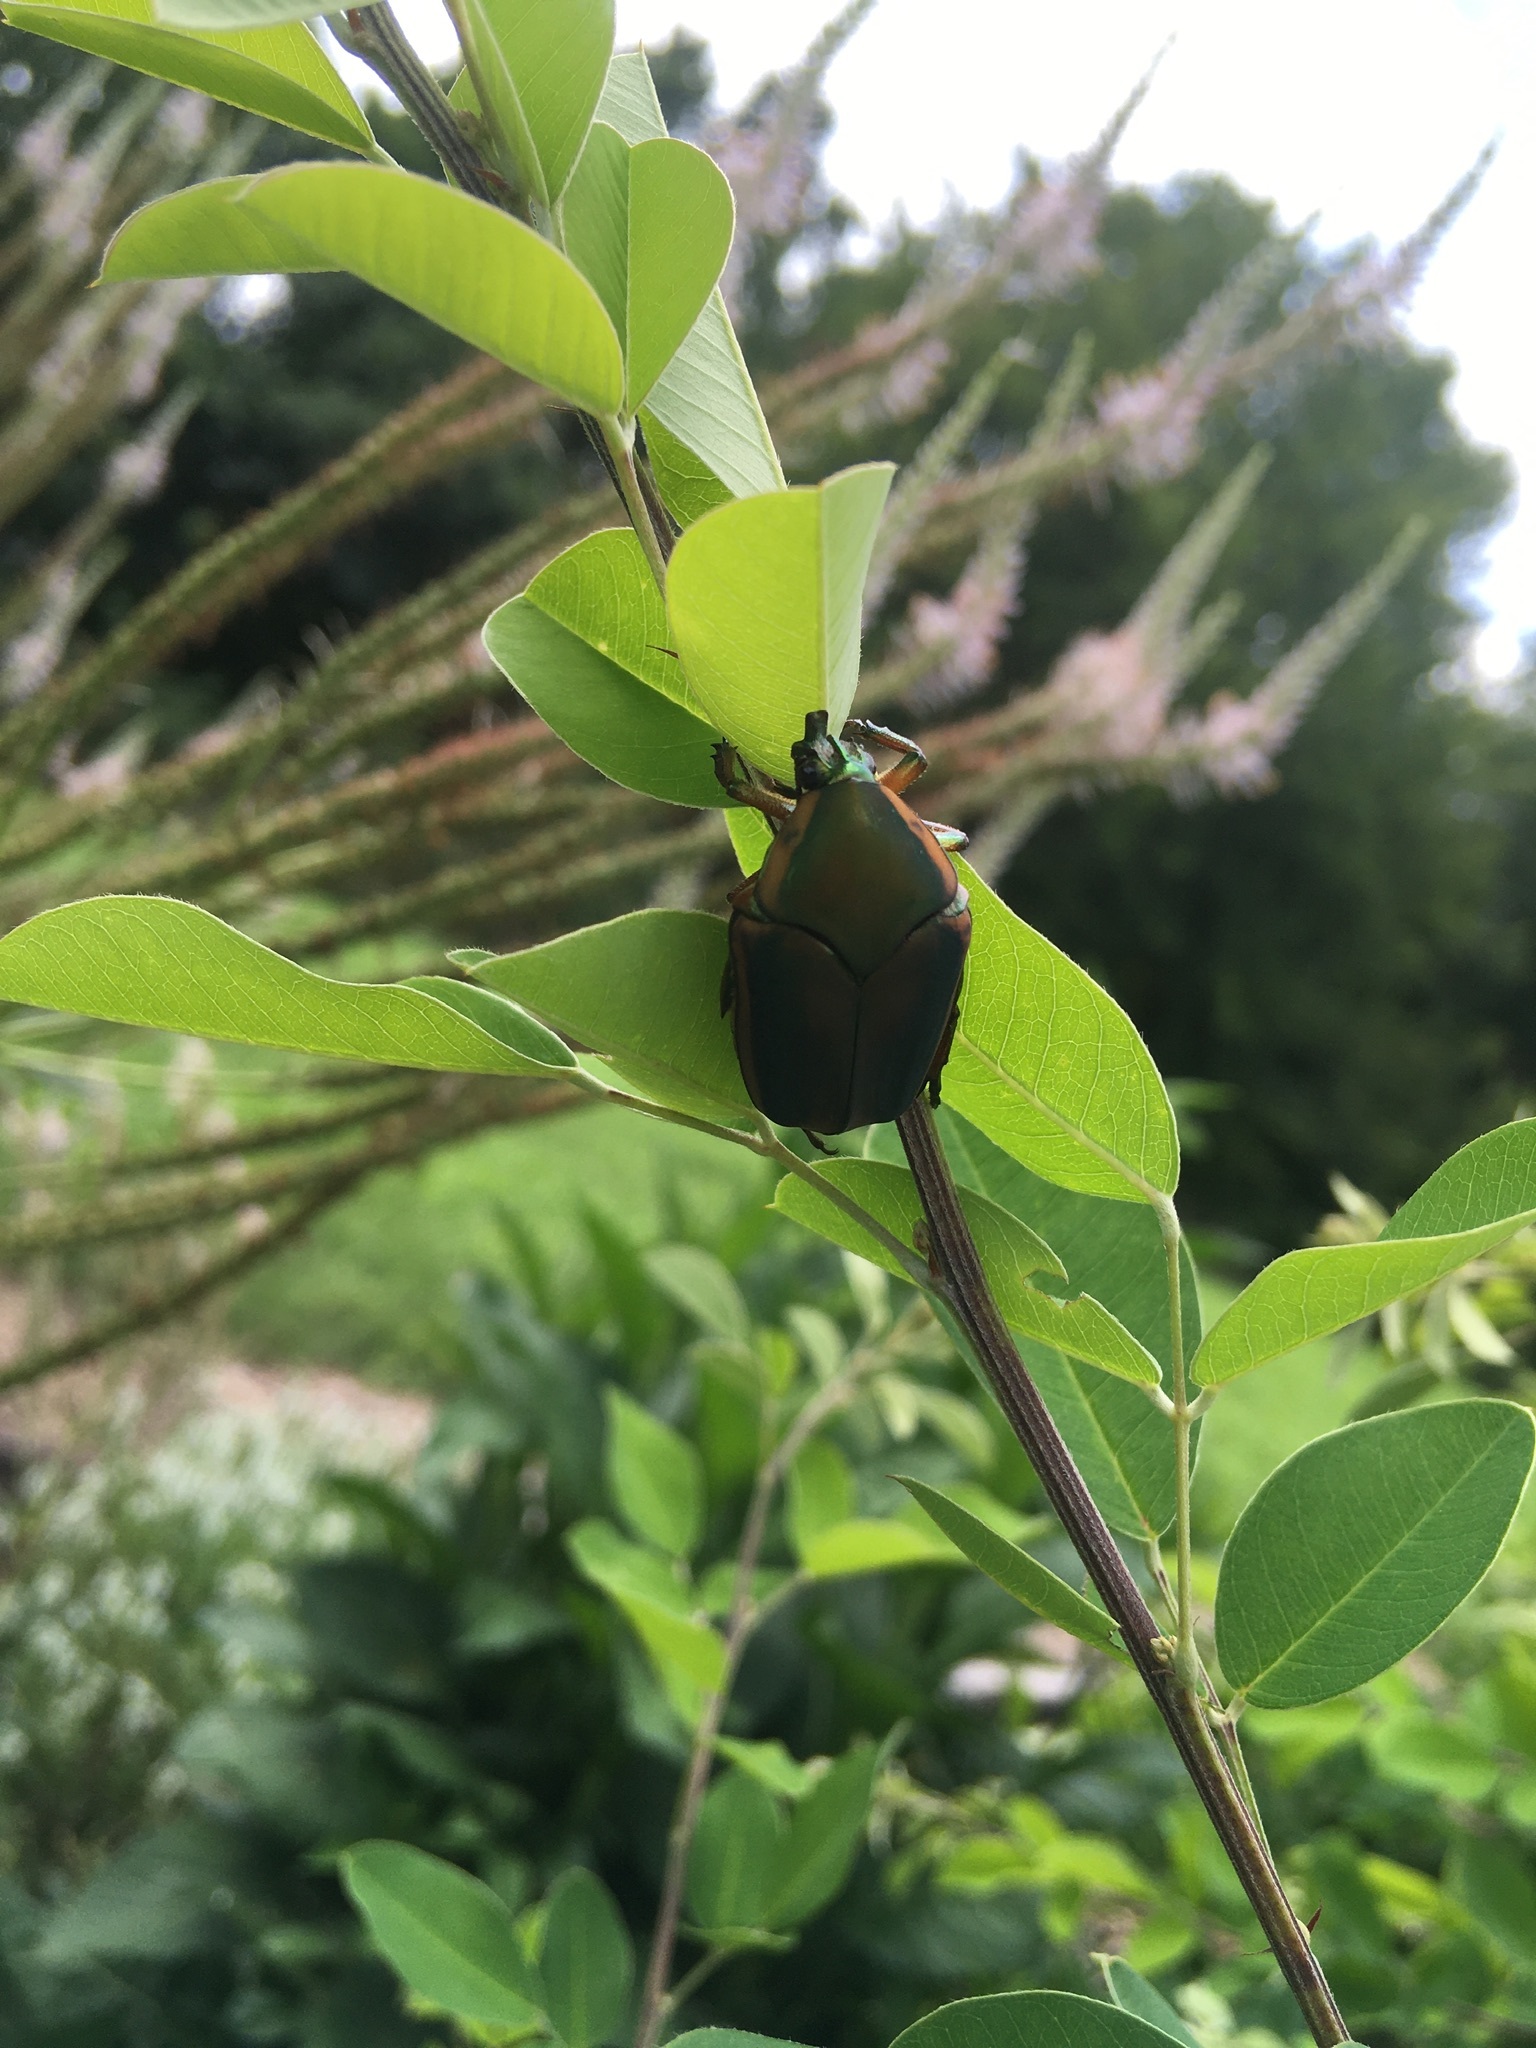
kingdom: Animalia
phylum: Arthropoda
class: Insecta
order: Coleoptera
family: Scarabaeidae
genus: Cotinis
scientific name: Cotinis nitida
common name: Common green june beetle
